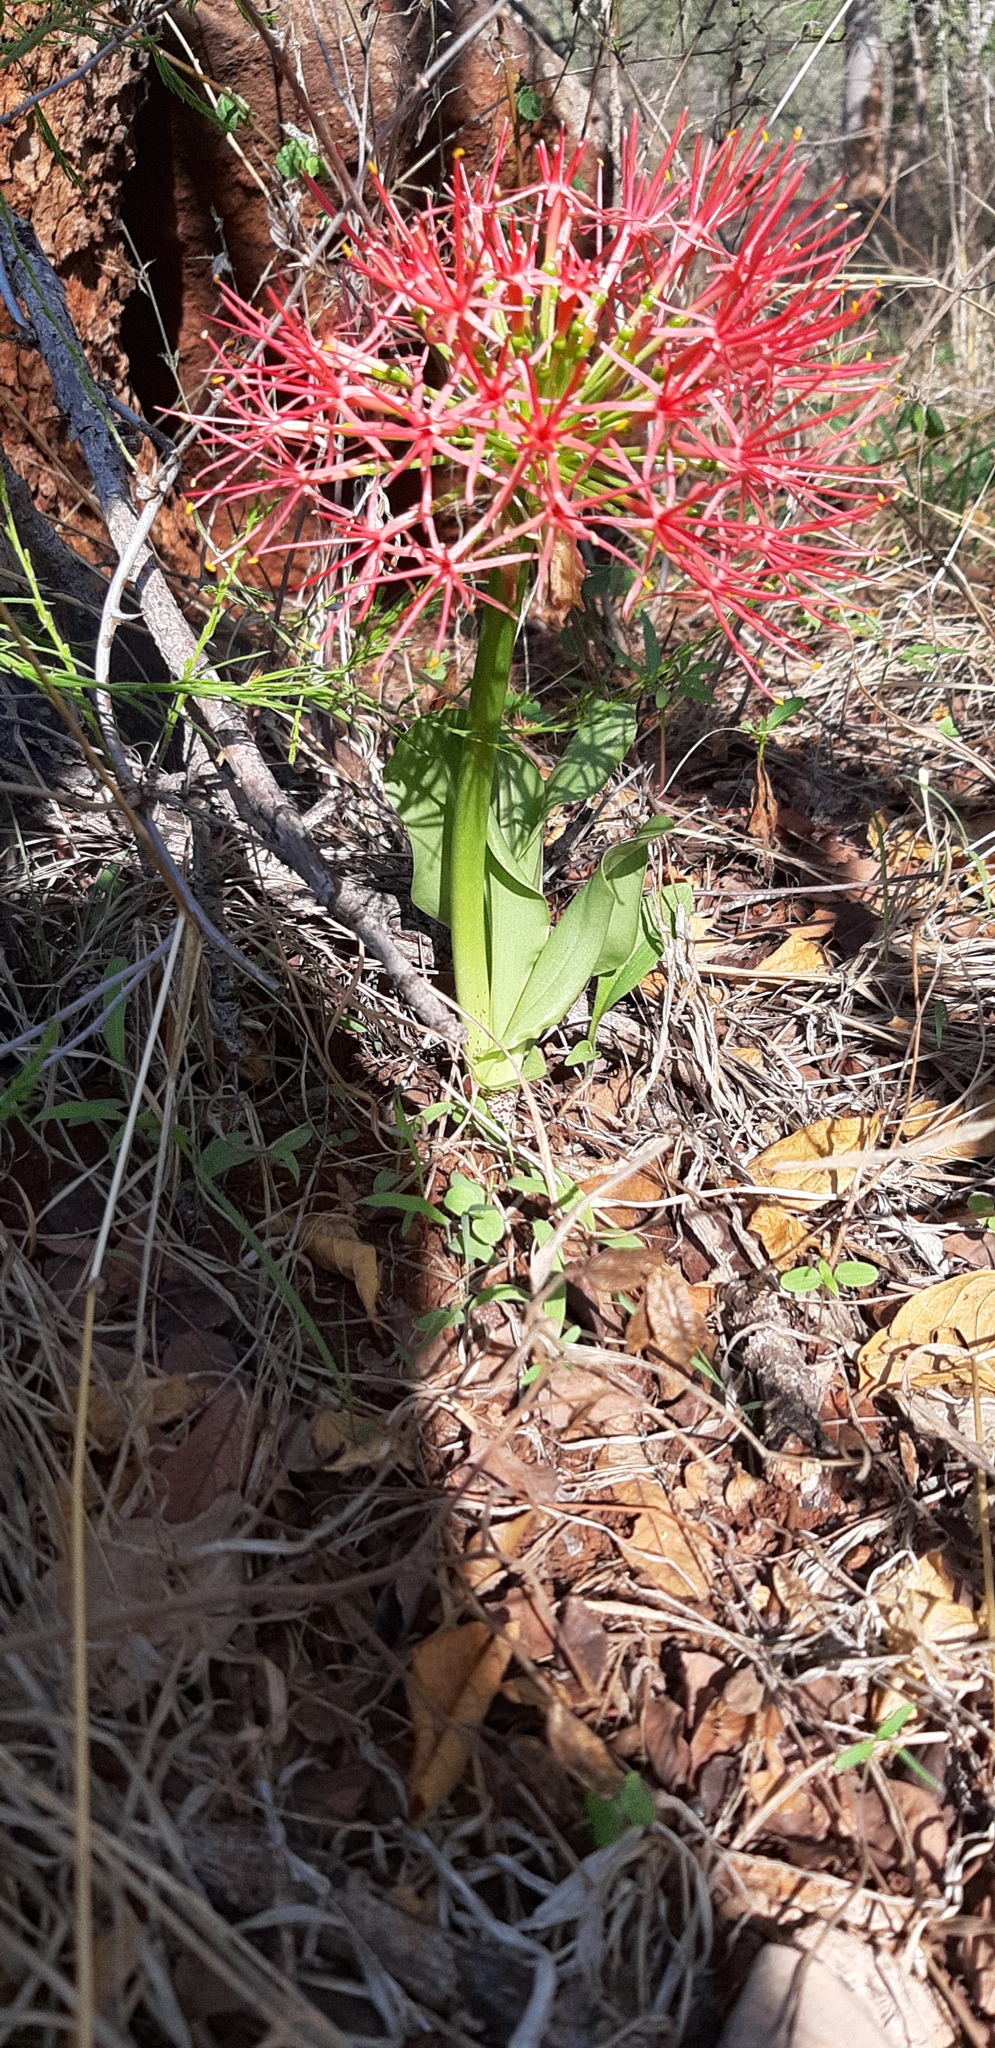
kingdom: Plantae
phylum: Tracheophyta
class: Liliopsida
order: Asparagales
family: Amaryllidaceae
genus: Scadoxus
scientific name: Scadoxus multiflorus
